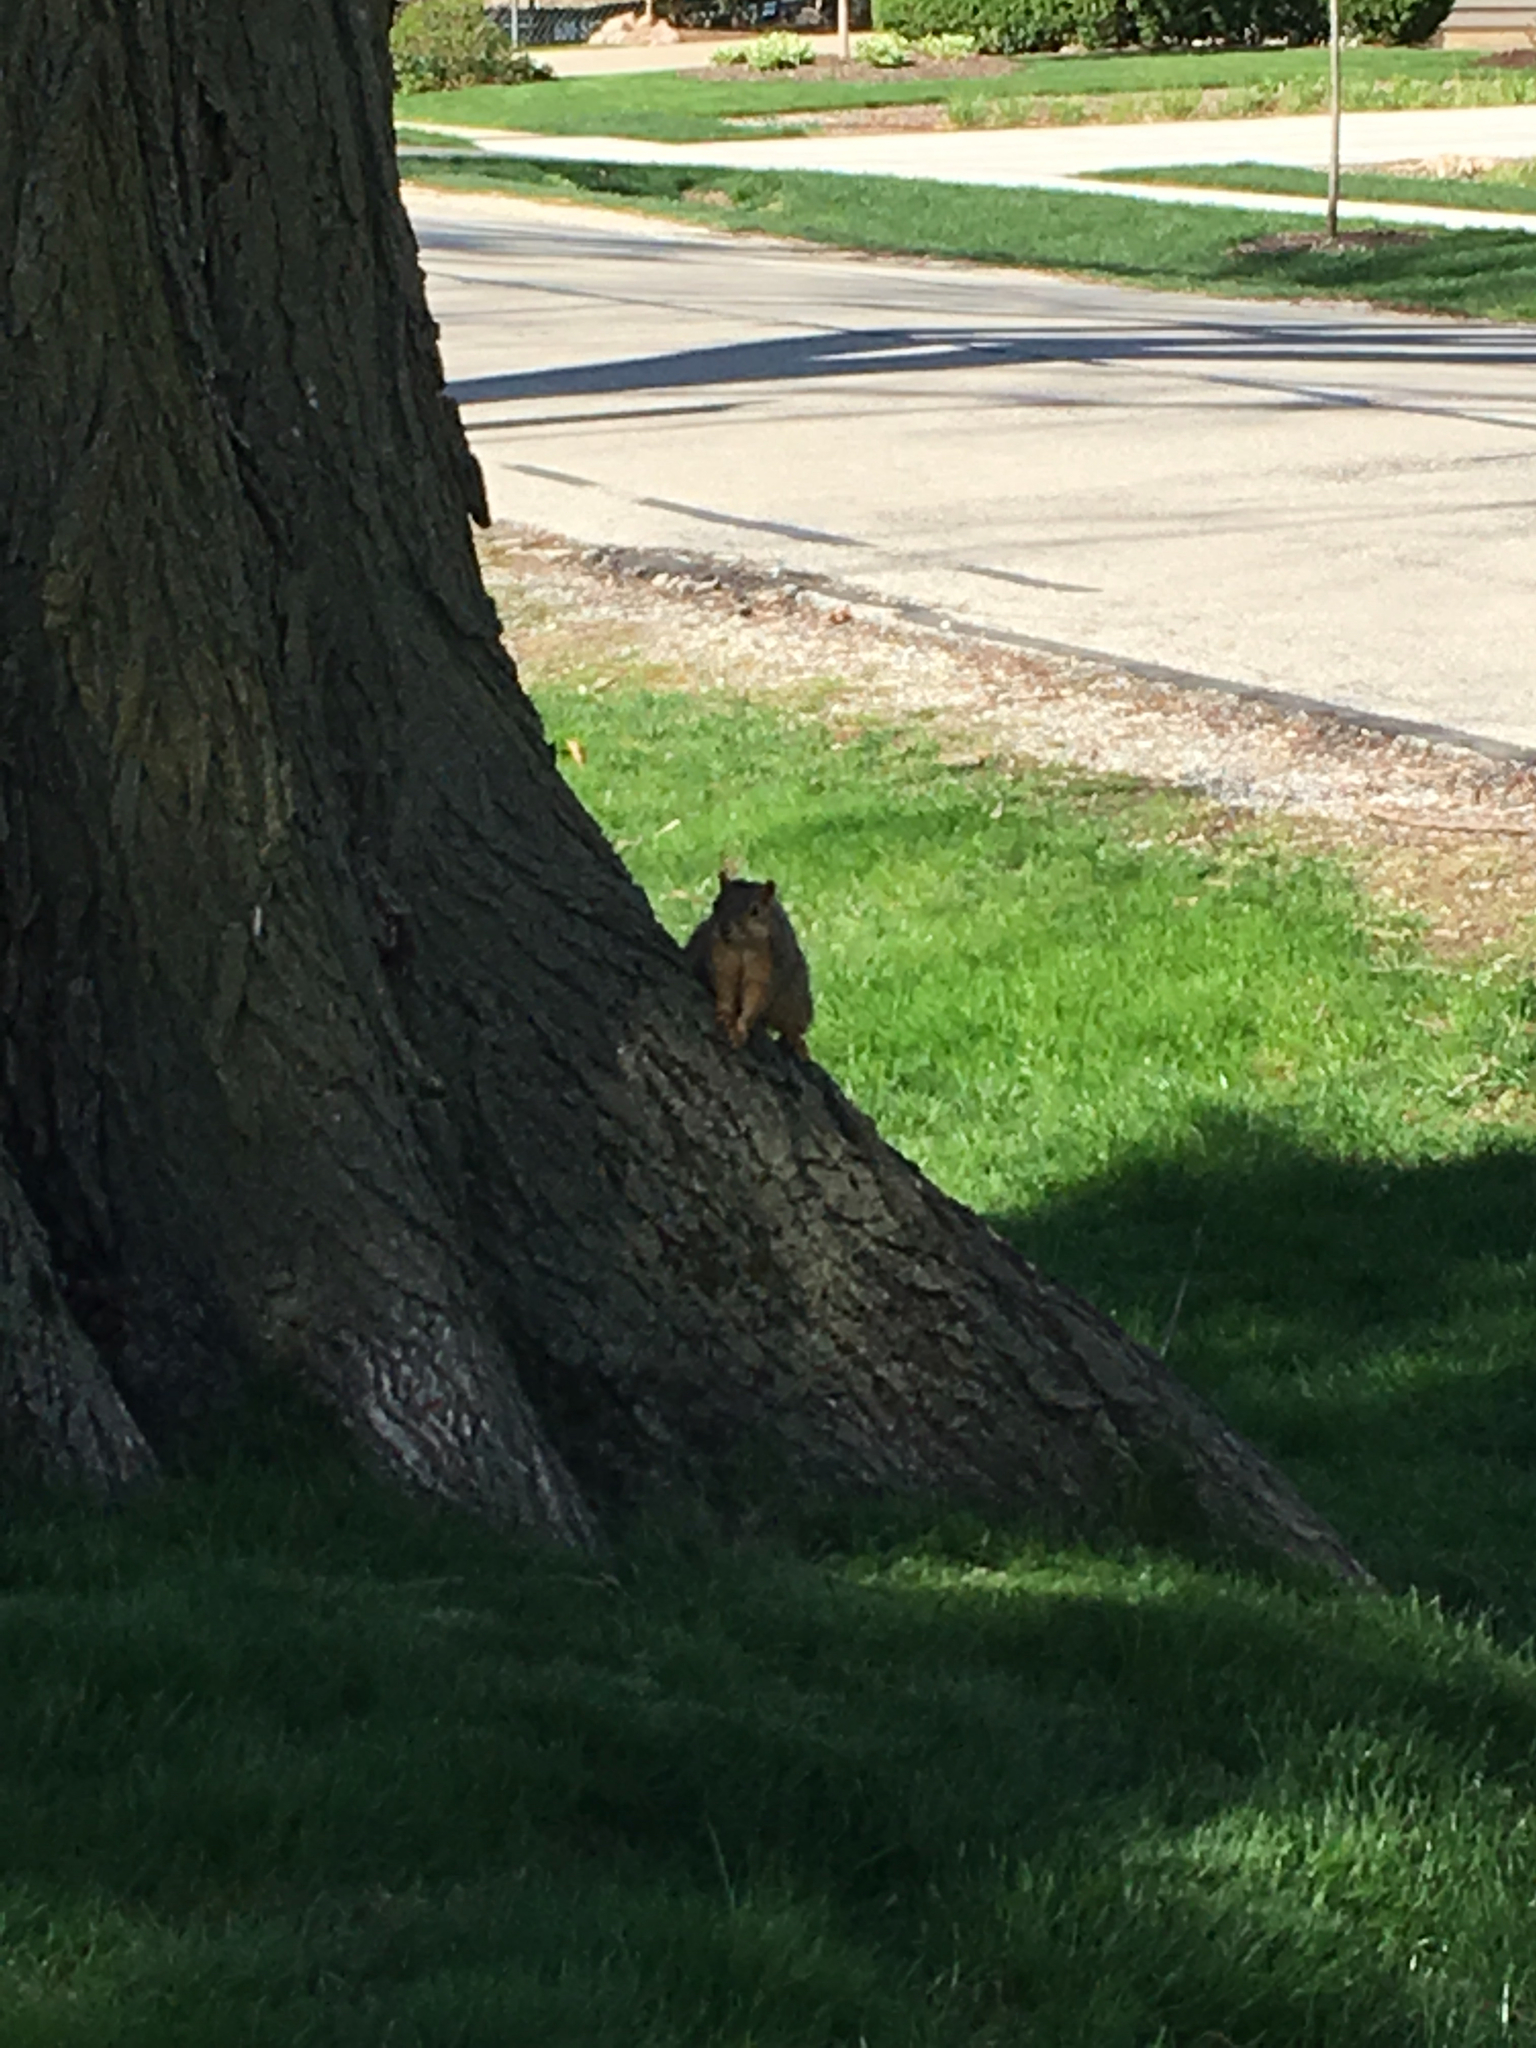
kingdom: Animalia
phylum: Chordata
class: Mammalia
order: Rodentia
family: Sciuridae
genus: Sciurus
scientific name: Sciurus niger
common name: Fox squirrel
